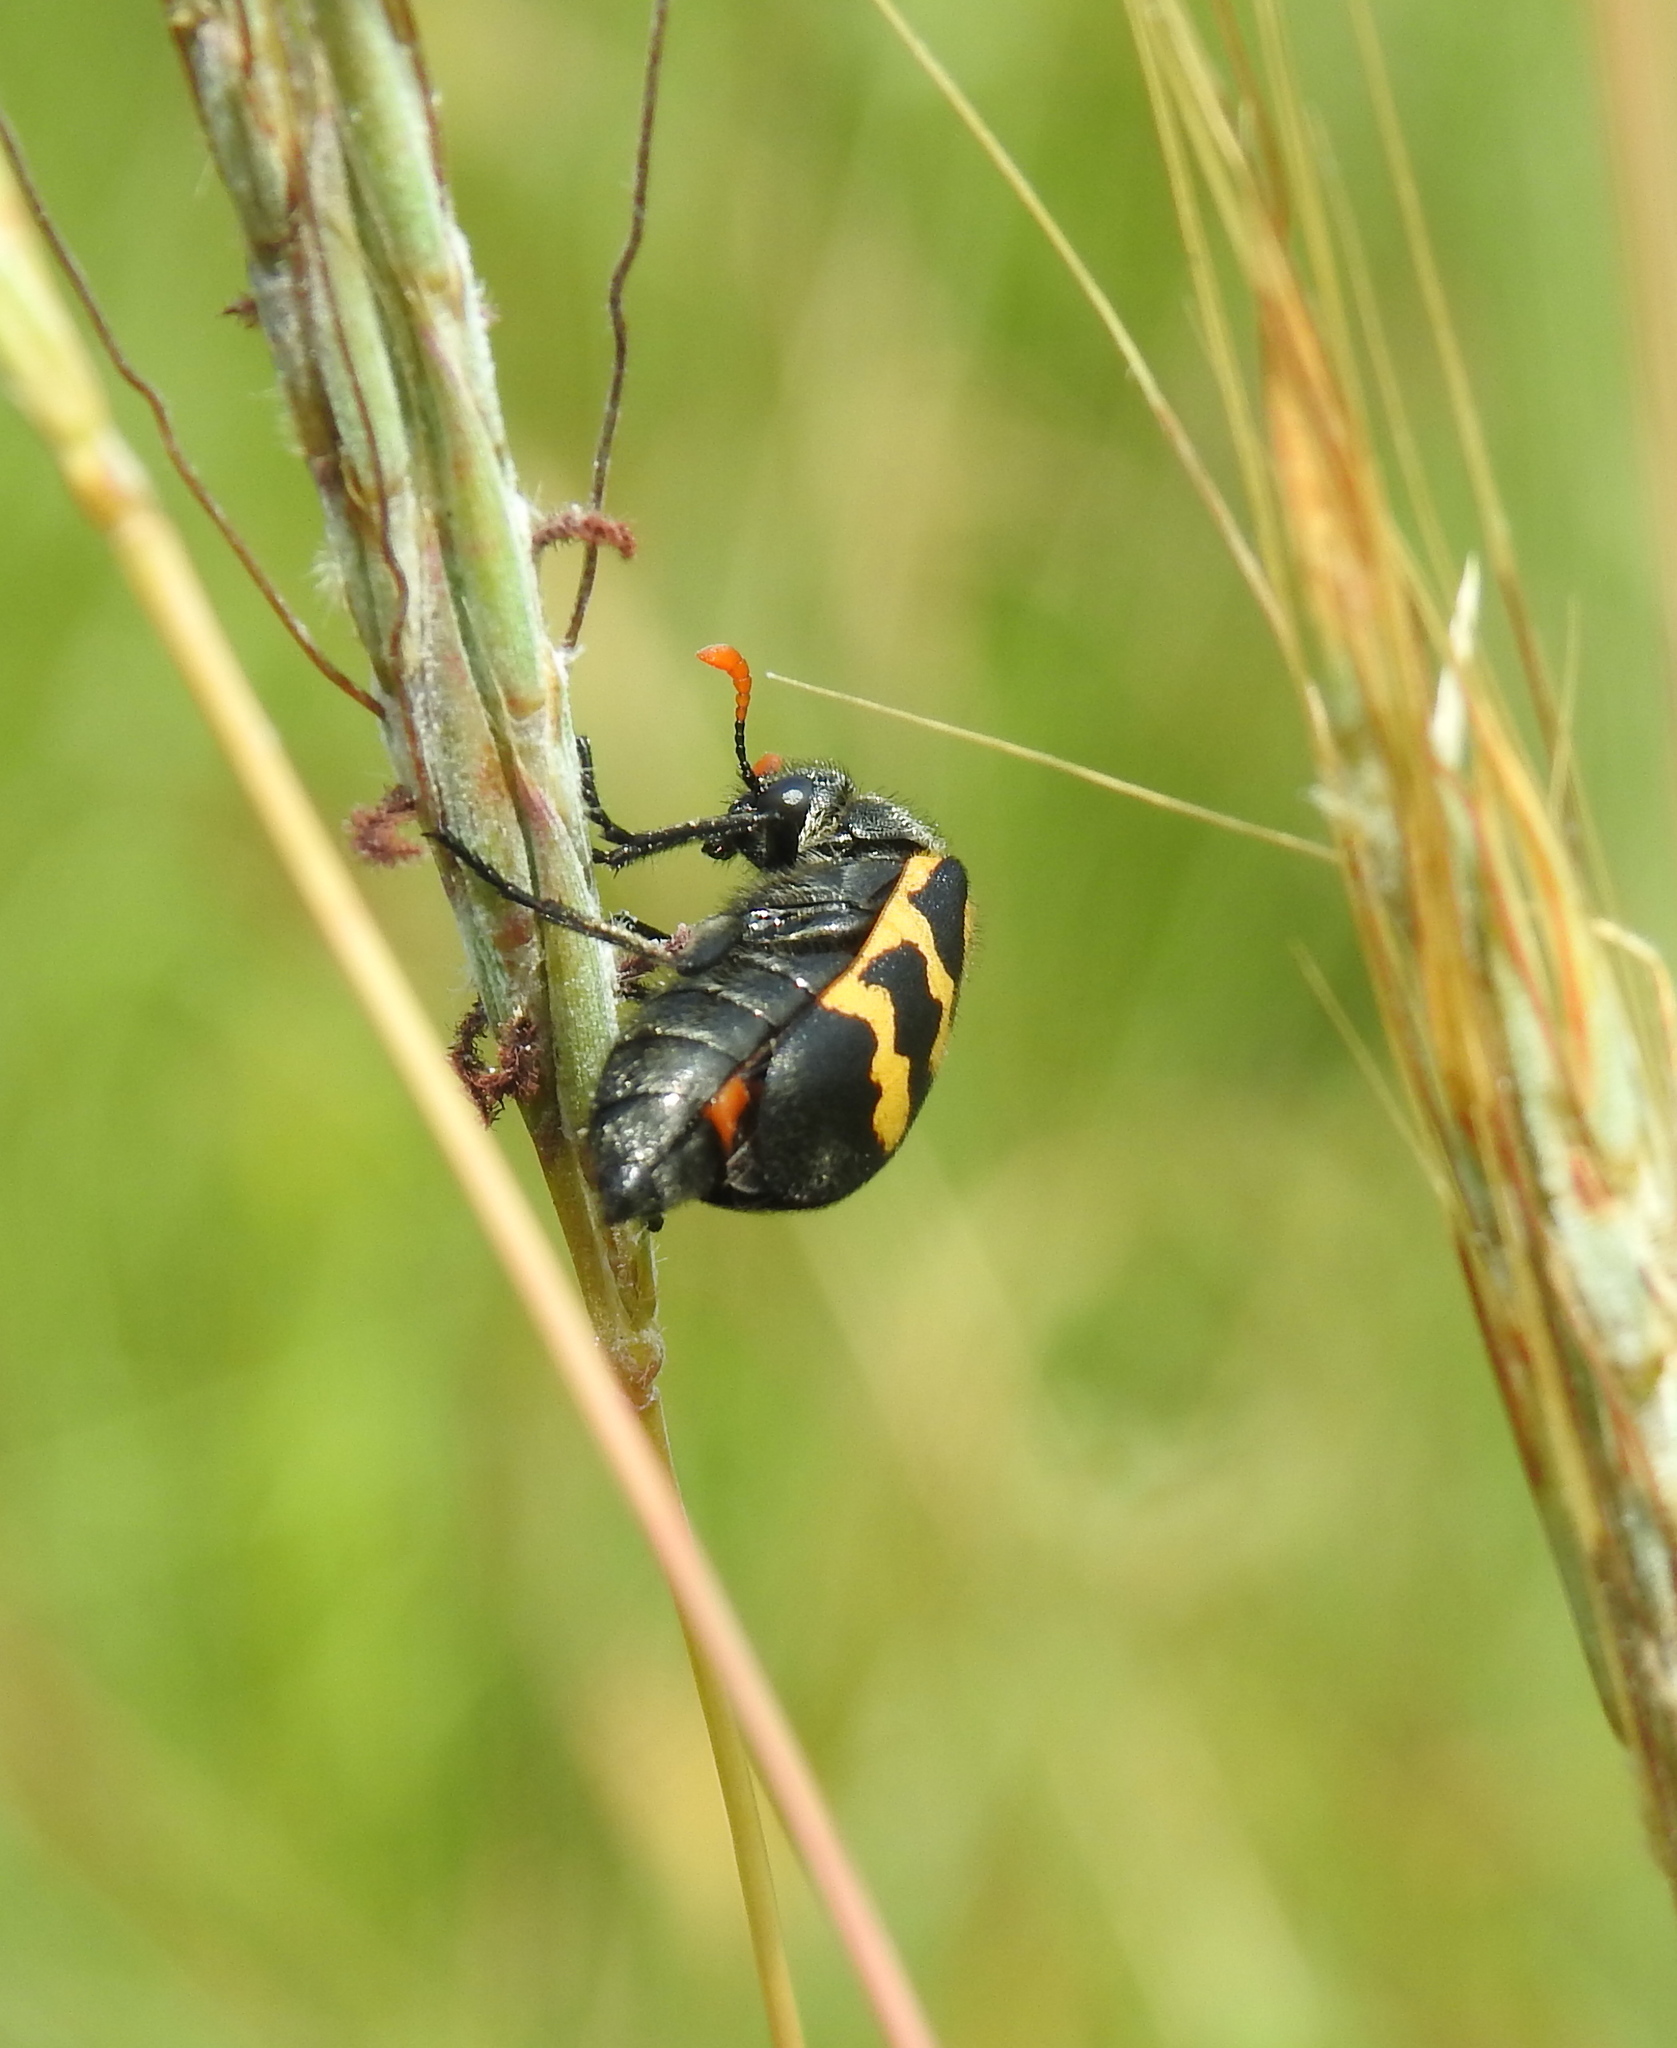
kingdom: Animalia
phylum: Arthropoda
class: Insecta
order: Coleoptera
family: Meloidae
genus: Meloe
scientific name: Meloe lunata
